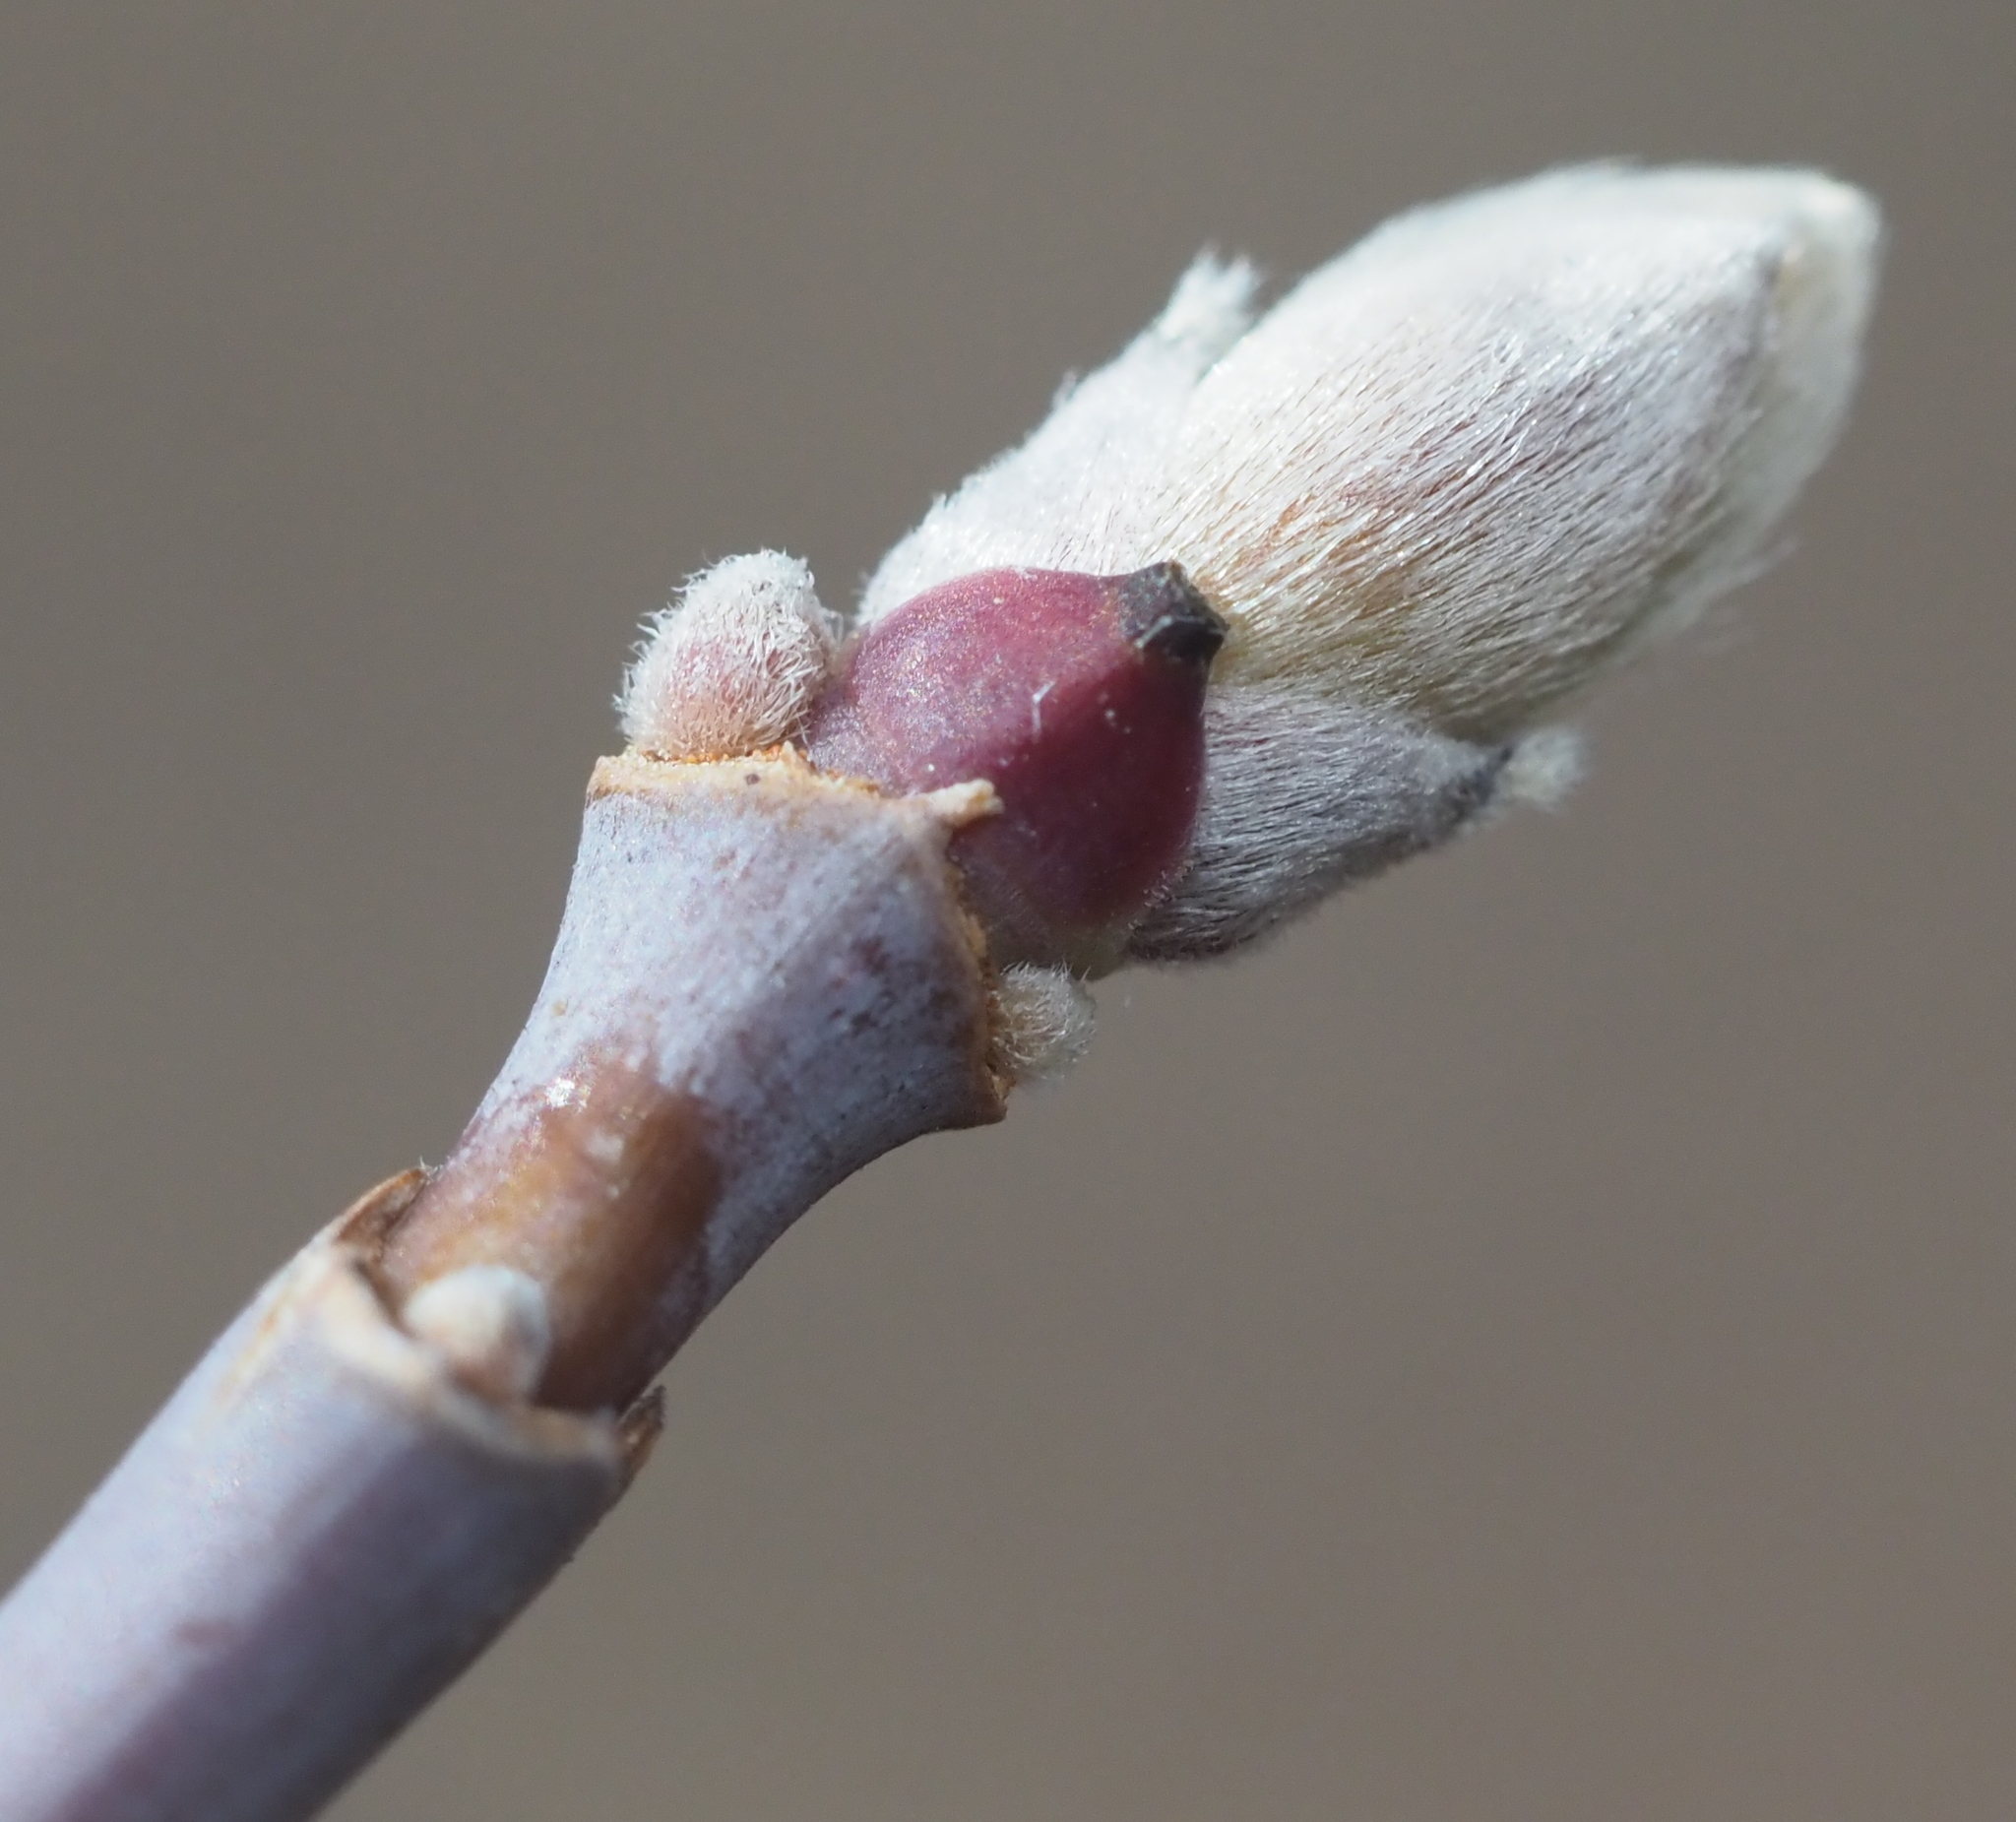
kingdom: Plantae
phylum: Tracheophyta
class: Magnoliopsida
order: Sapindales
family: Sapindaceae
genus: Acer
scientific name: Acer negundo
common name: Ashleaf maple
